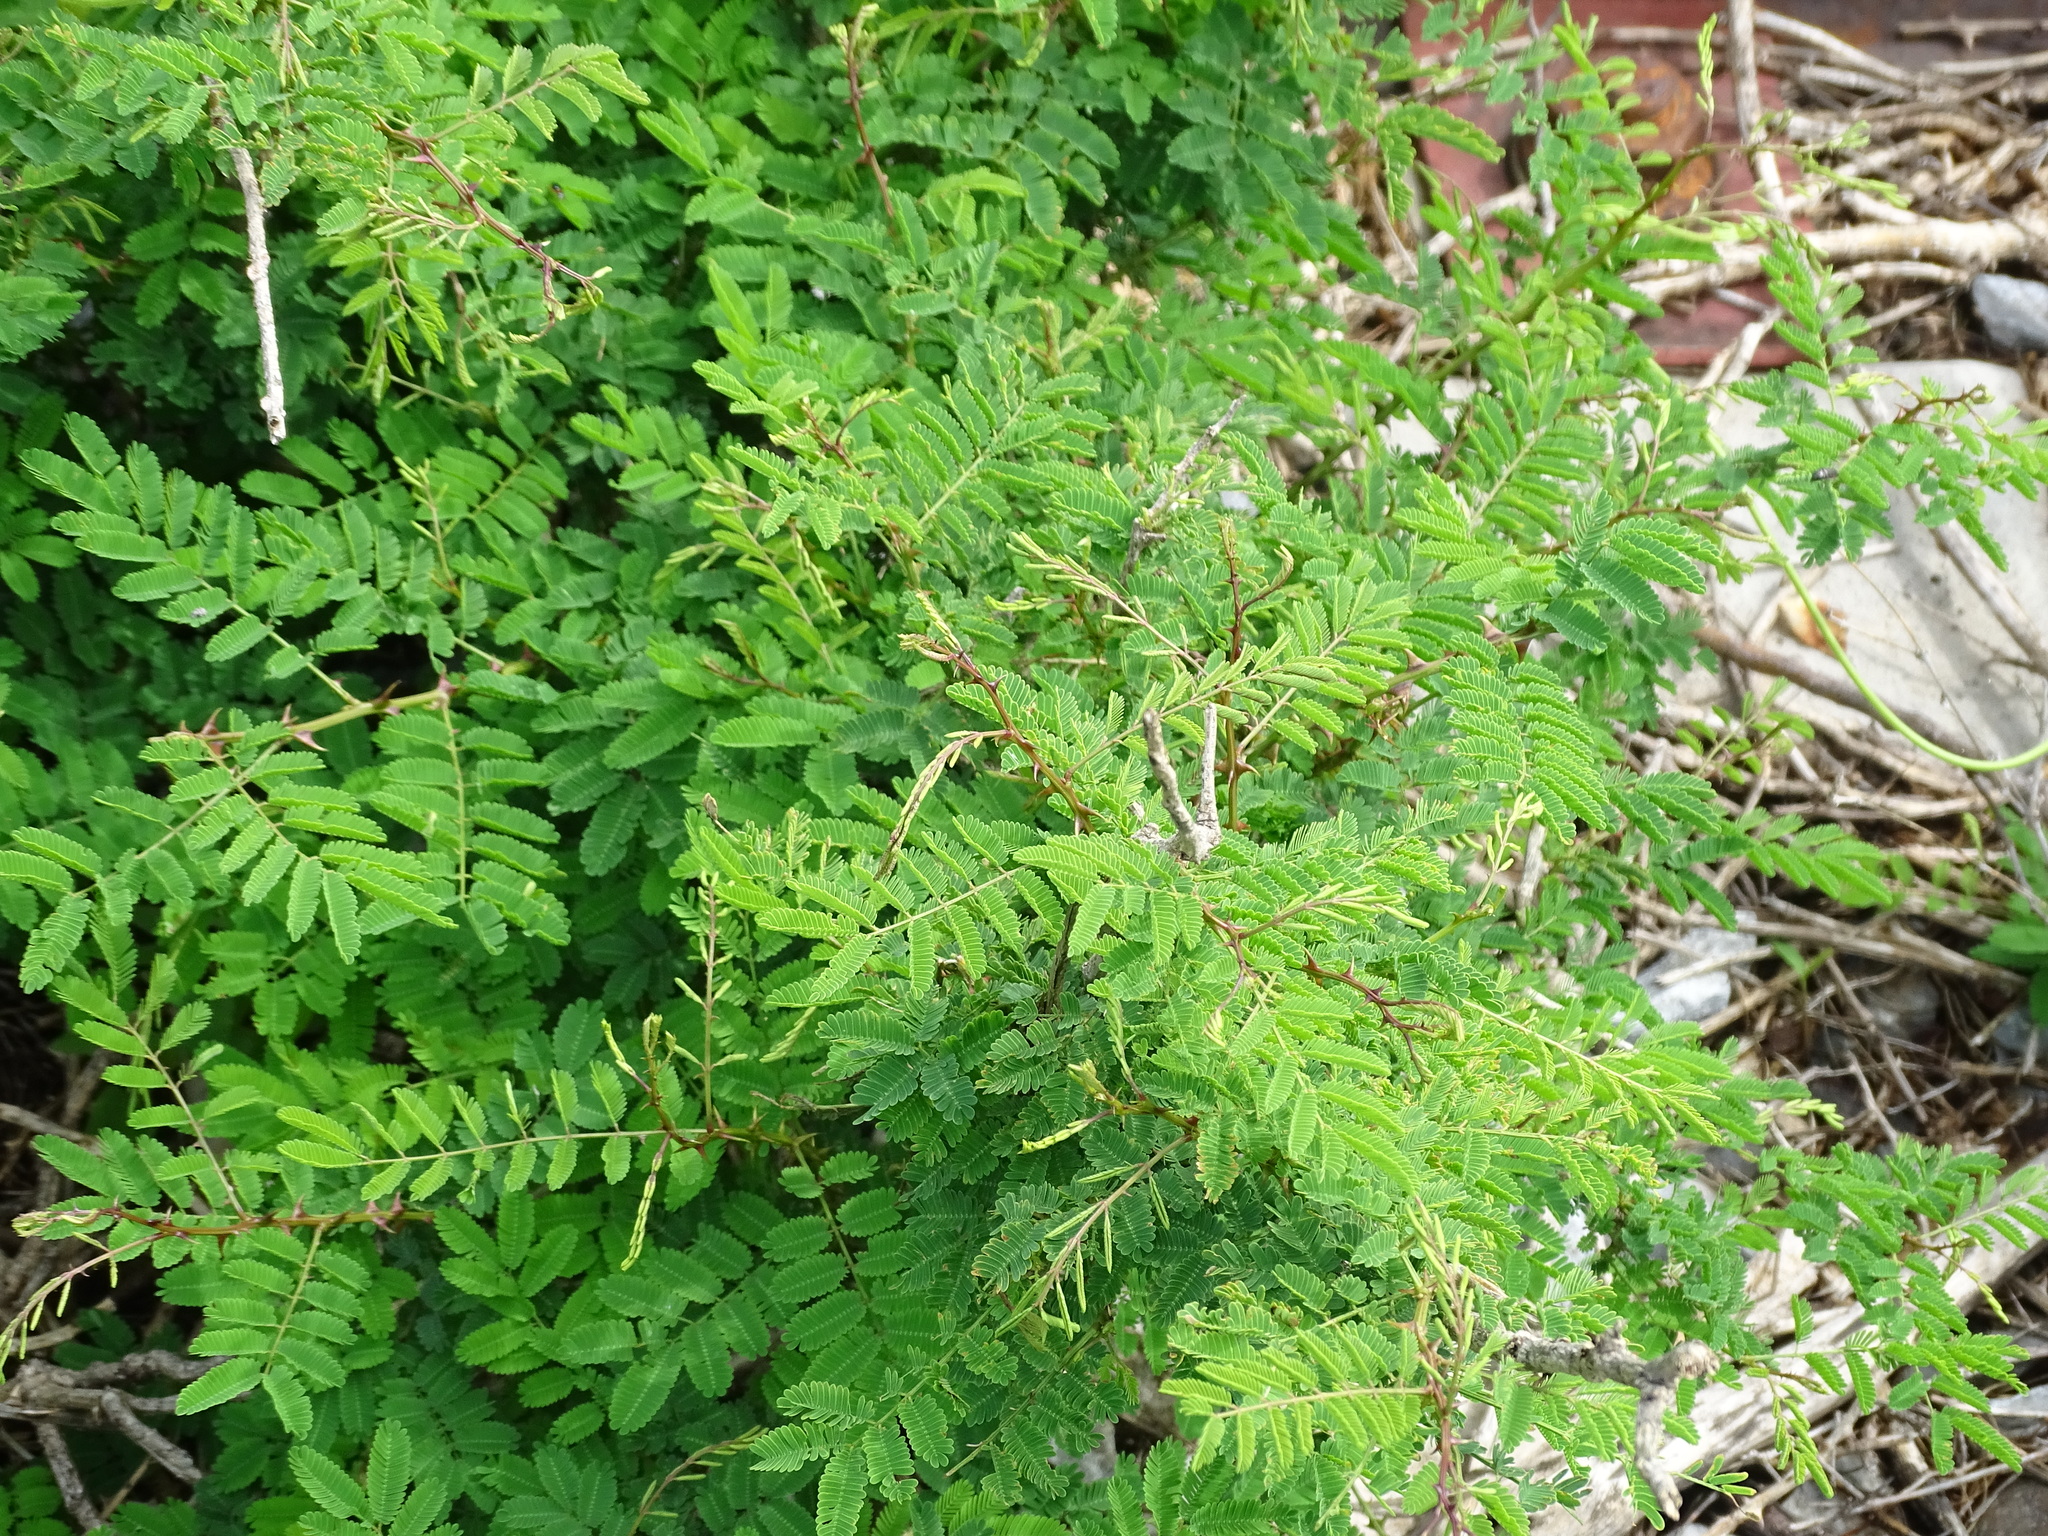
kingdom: Plantae
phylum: Tracheophyta
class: Magnoliopsida
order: Fabales
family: Fabaceae
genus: Mimosa
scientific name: Mimosa acantholoba
